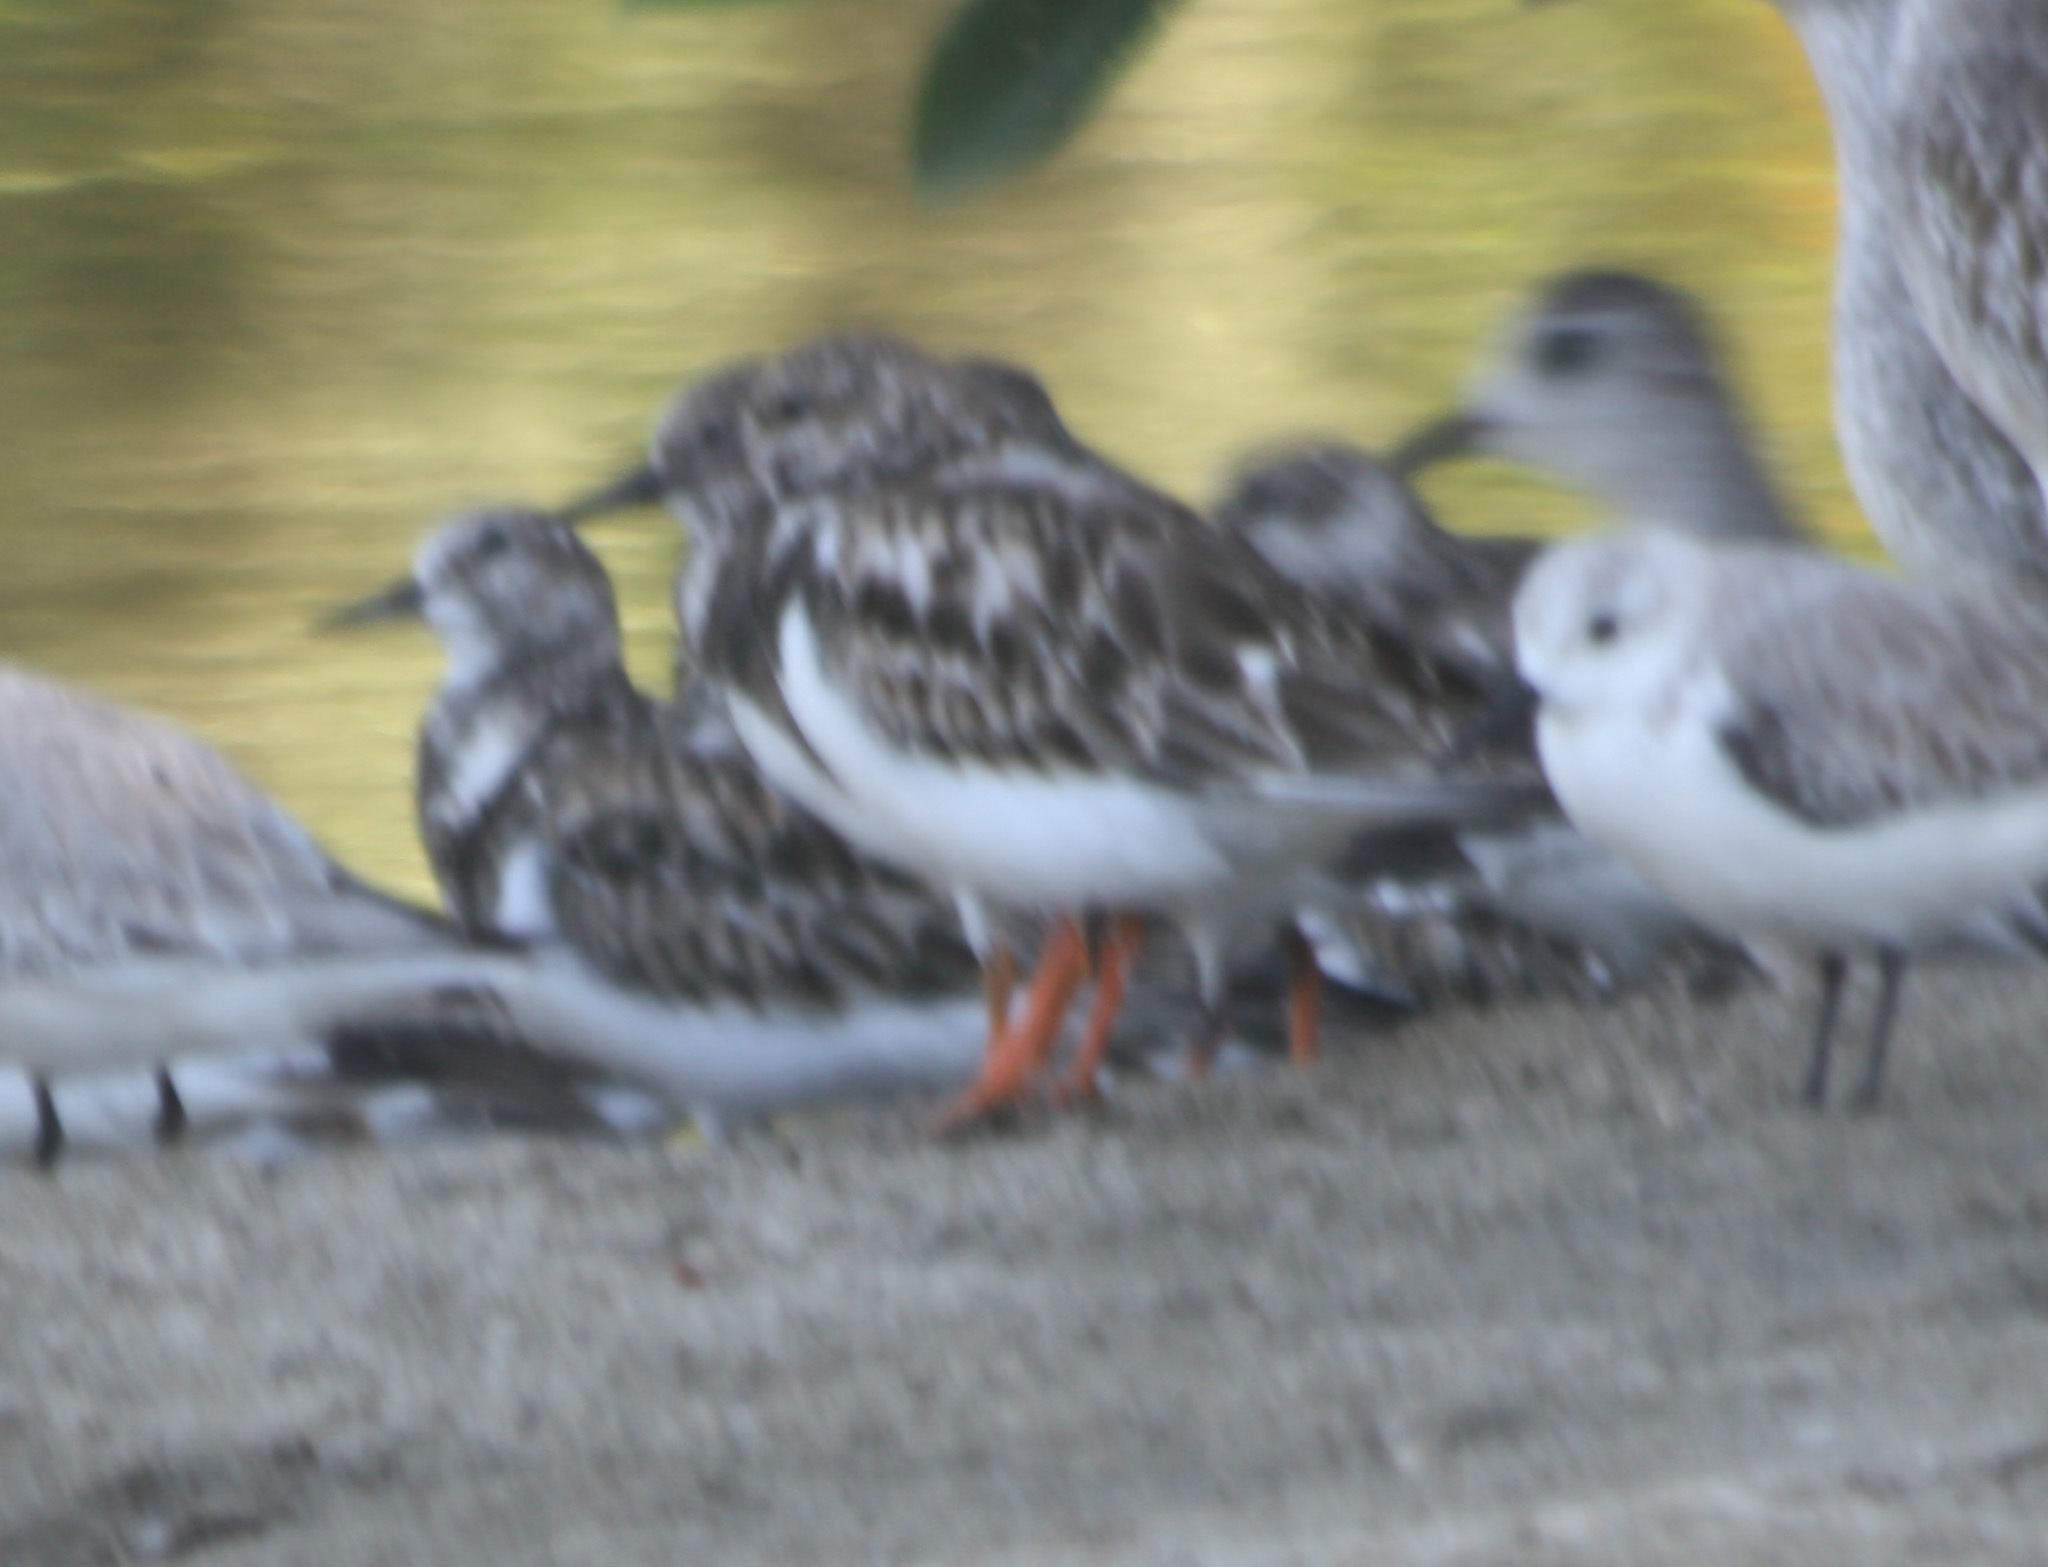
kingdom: Animalia
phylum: Chordata
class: Aves
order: Charadriiformes
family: Scolopacidae
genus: Arenaria
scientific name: Arenaria interpres
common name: Ruddy turnstone
